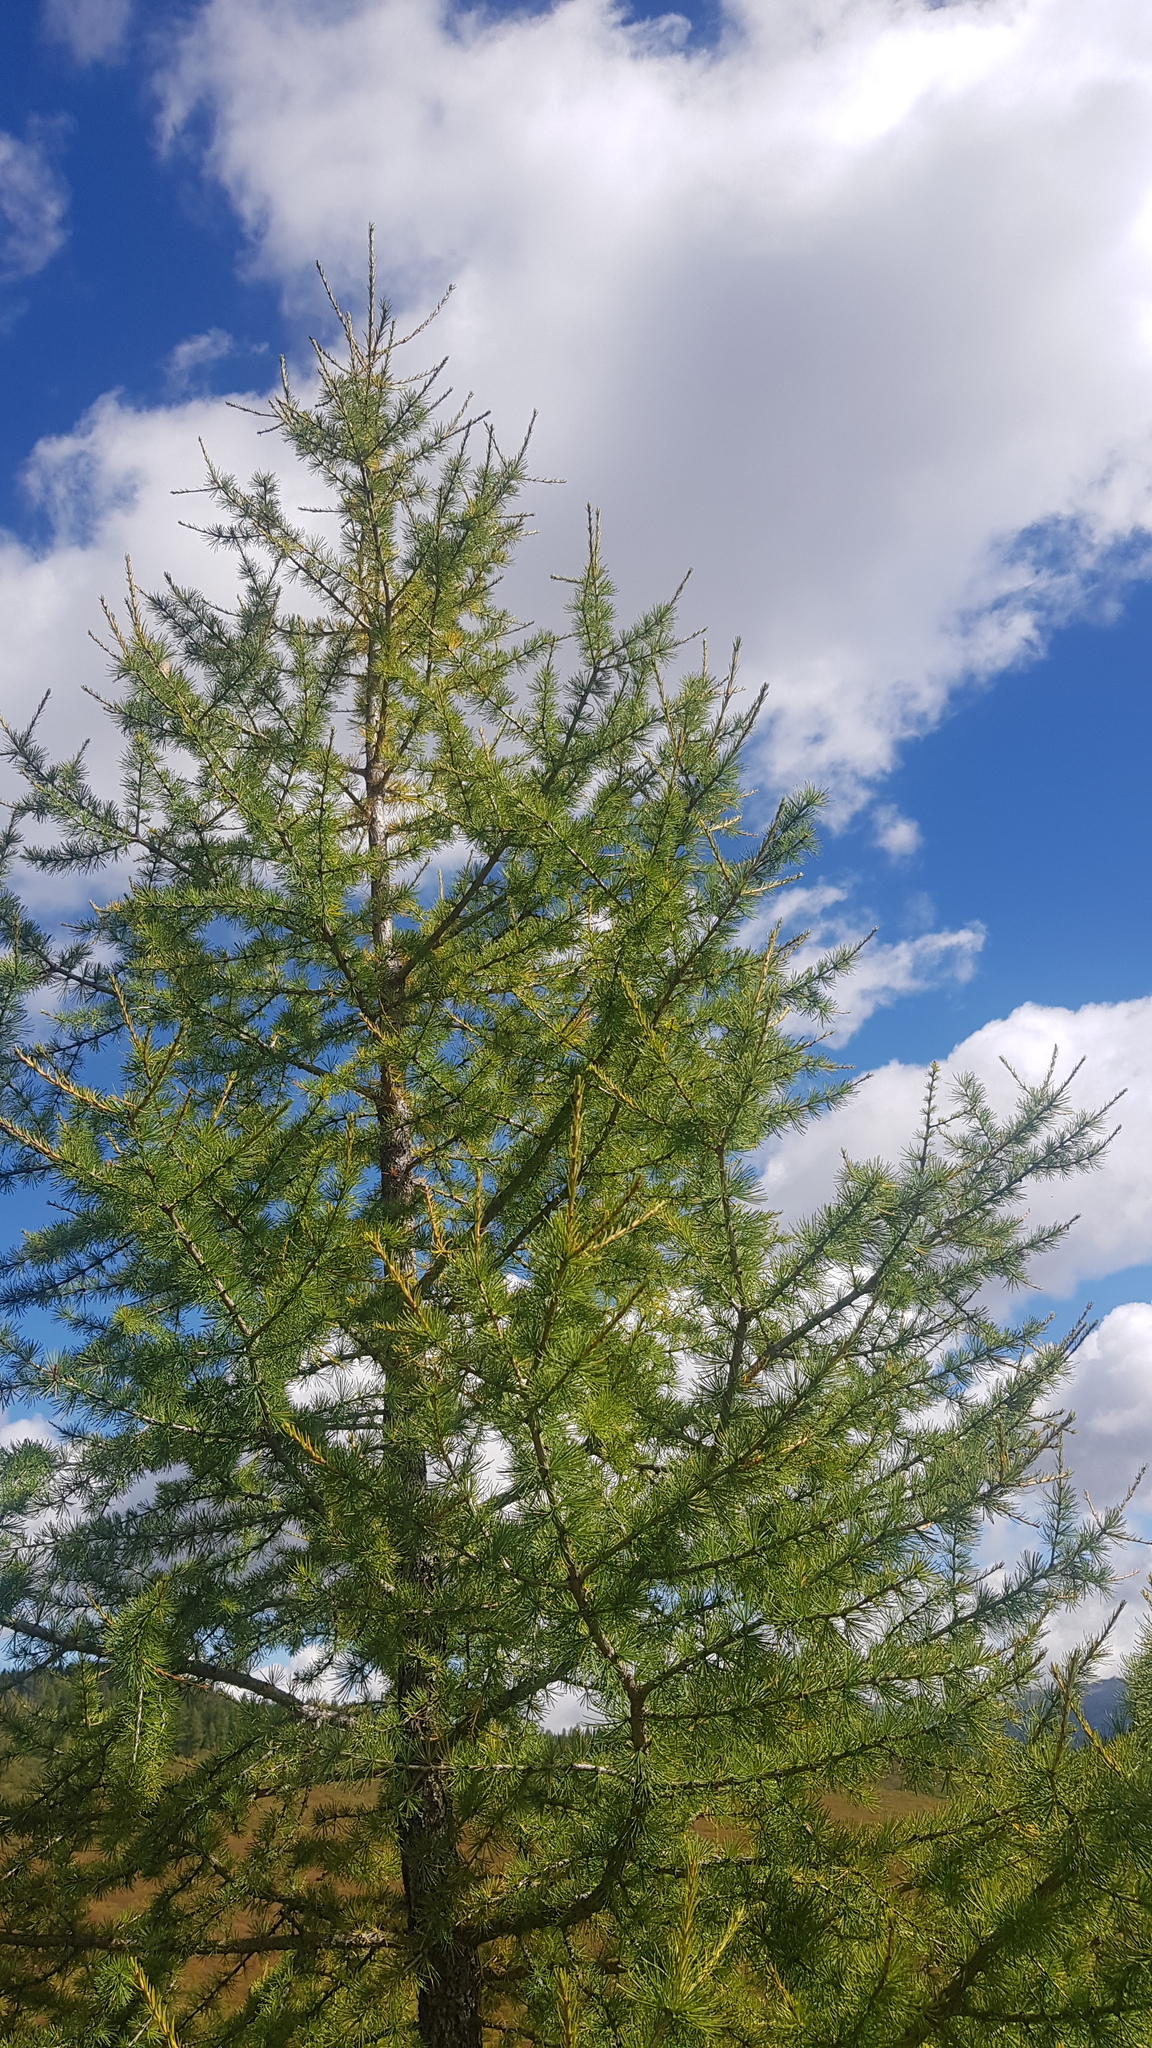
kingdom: Plantae
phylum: Tracheophyta
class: Pinopsida
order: Pinales
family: Pinaceae
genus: Larix
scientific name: Larix sibirica
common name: Siberian larch
